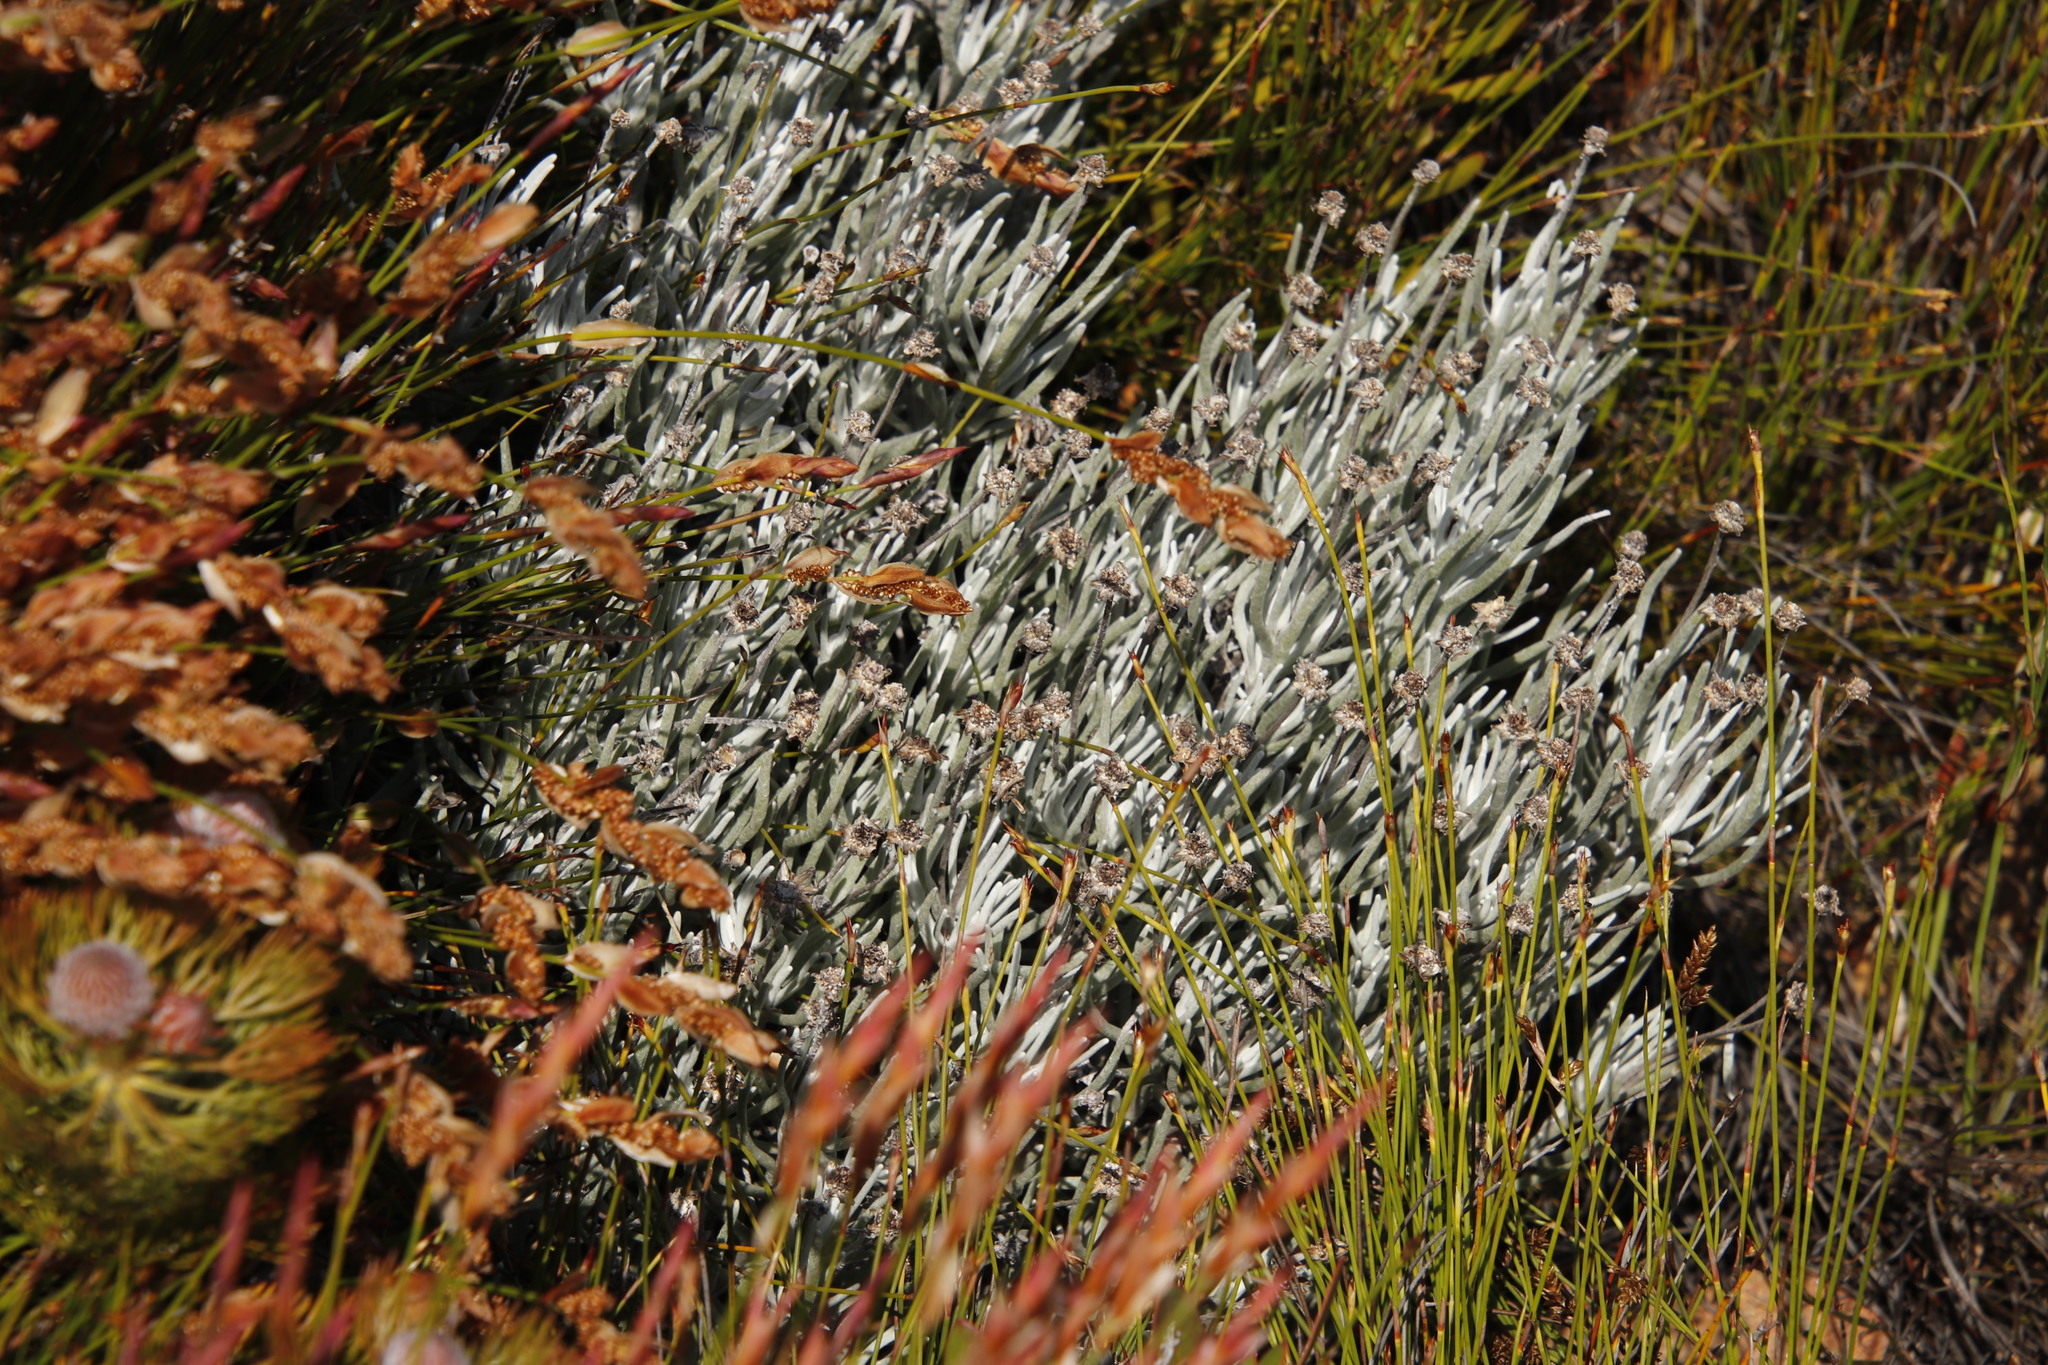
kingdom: Plantae
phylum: Tracheophyta
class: Magnoliopsida
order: Asterales
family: Asteraceae
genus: Syncarpha
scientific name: Syncarpha gnaphaloides
